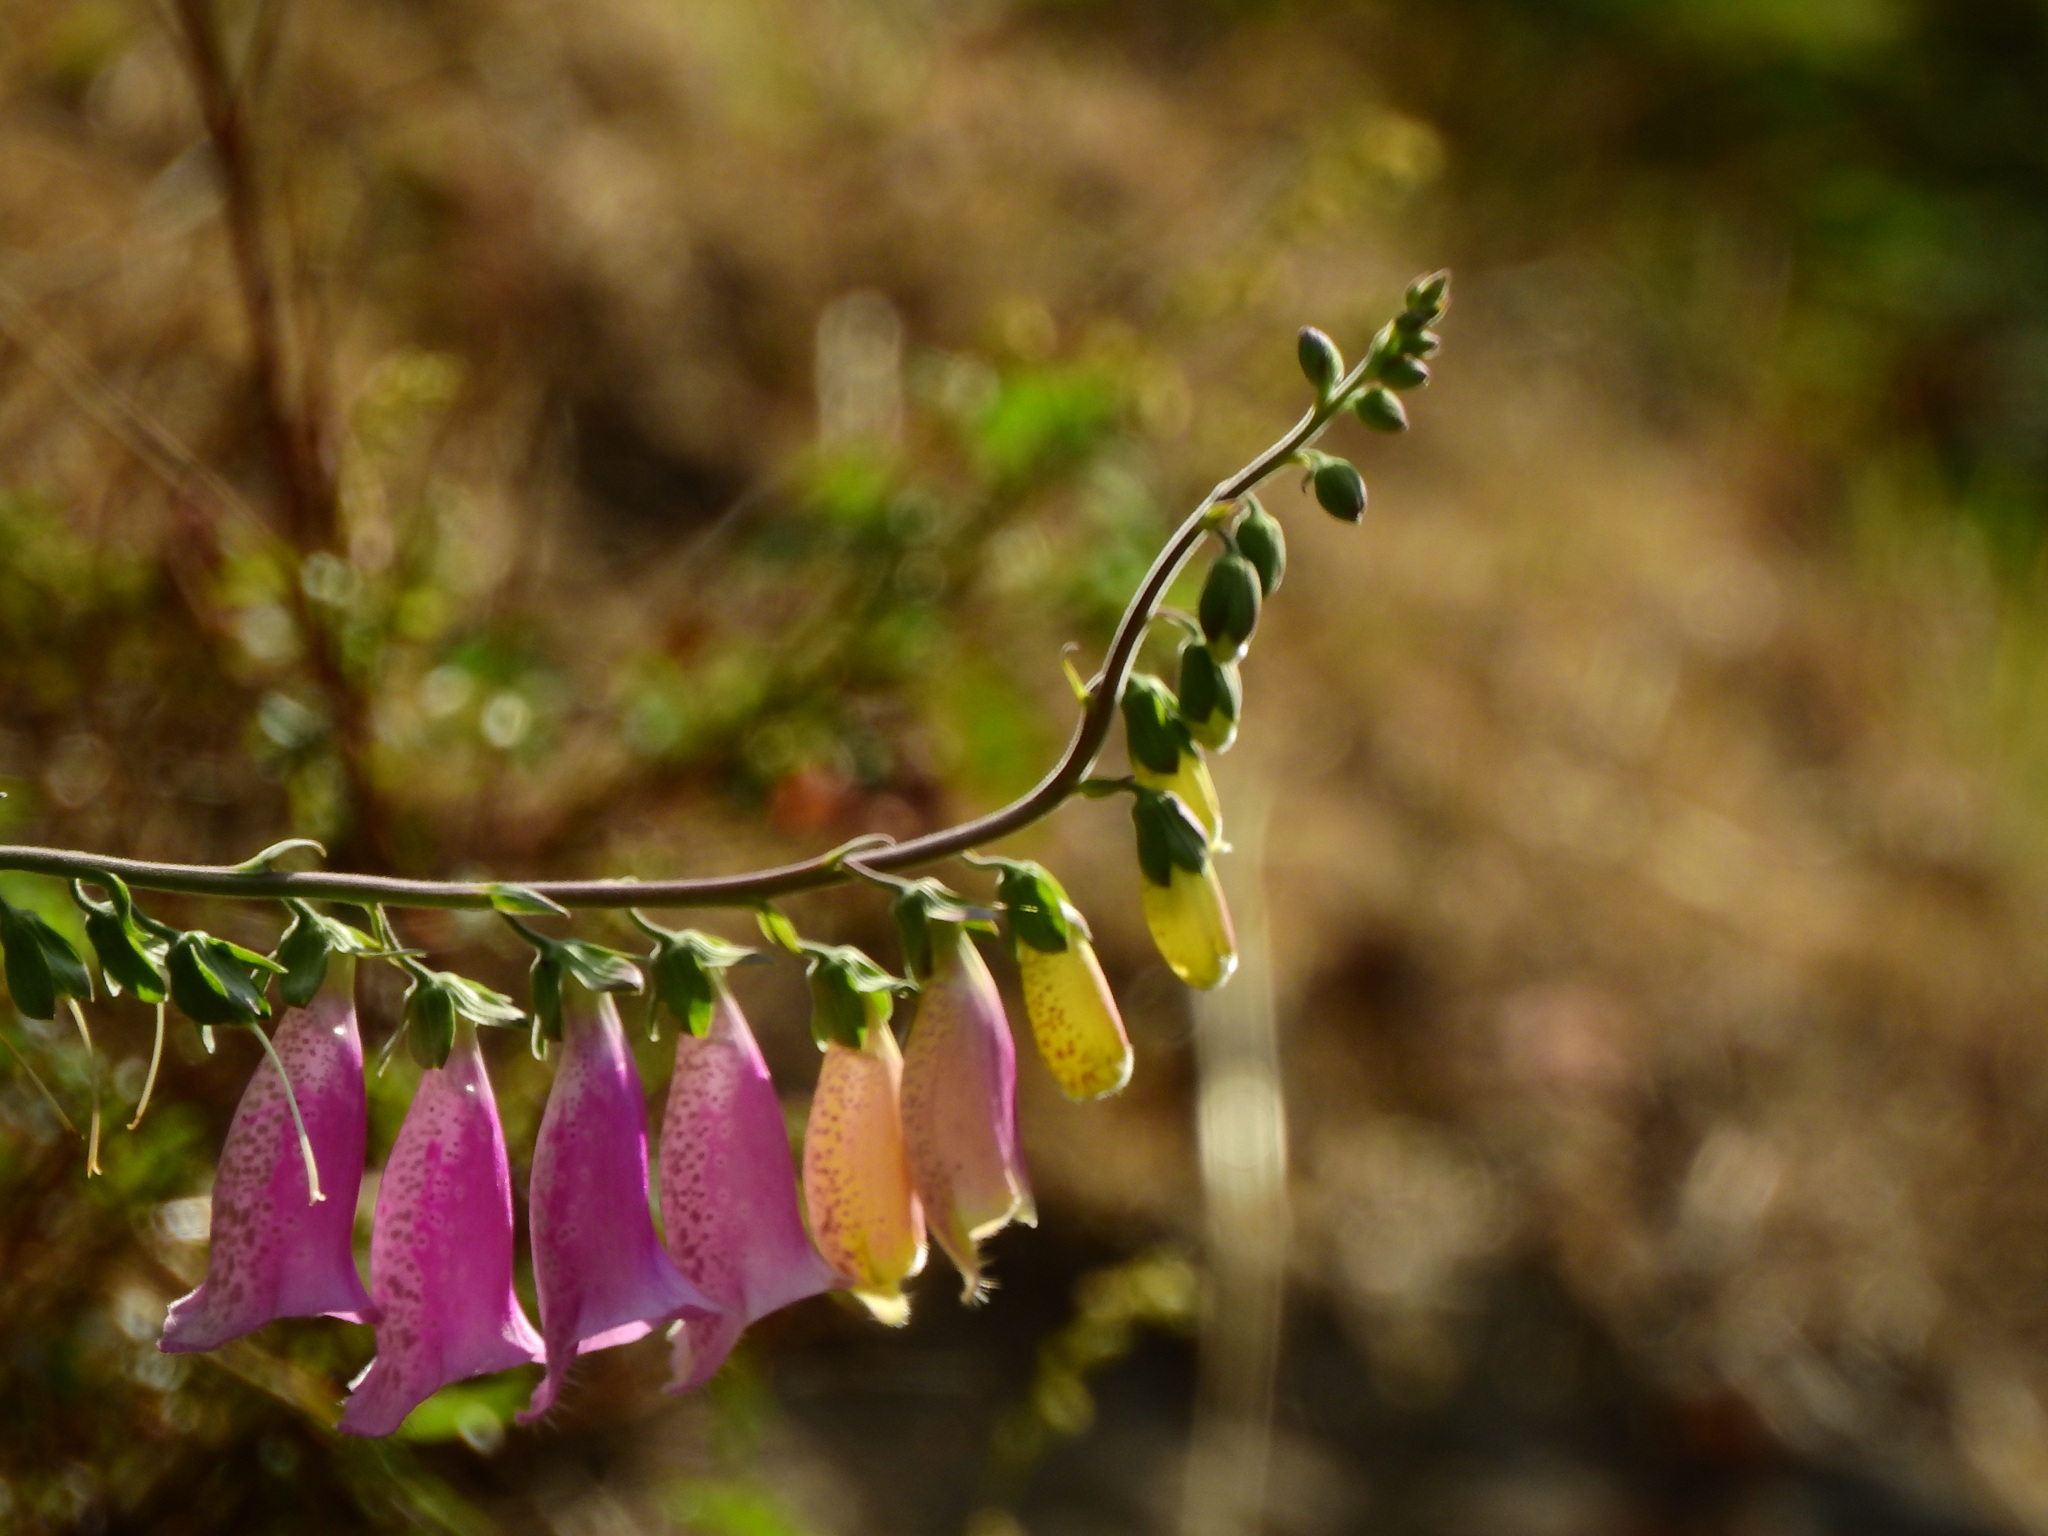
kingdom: Plantae
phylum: Tracheophyta
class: Magnoliopsida
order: Lamiales
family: Plantaginaceae
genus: Digitalis
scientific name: Digitalis purpurea
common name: Foxglove
